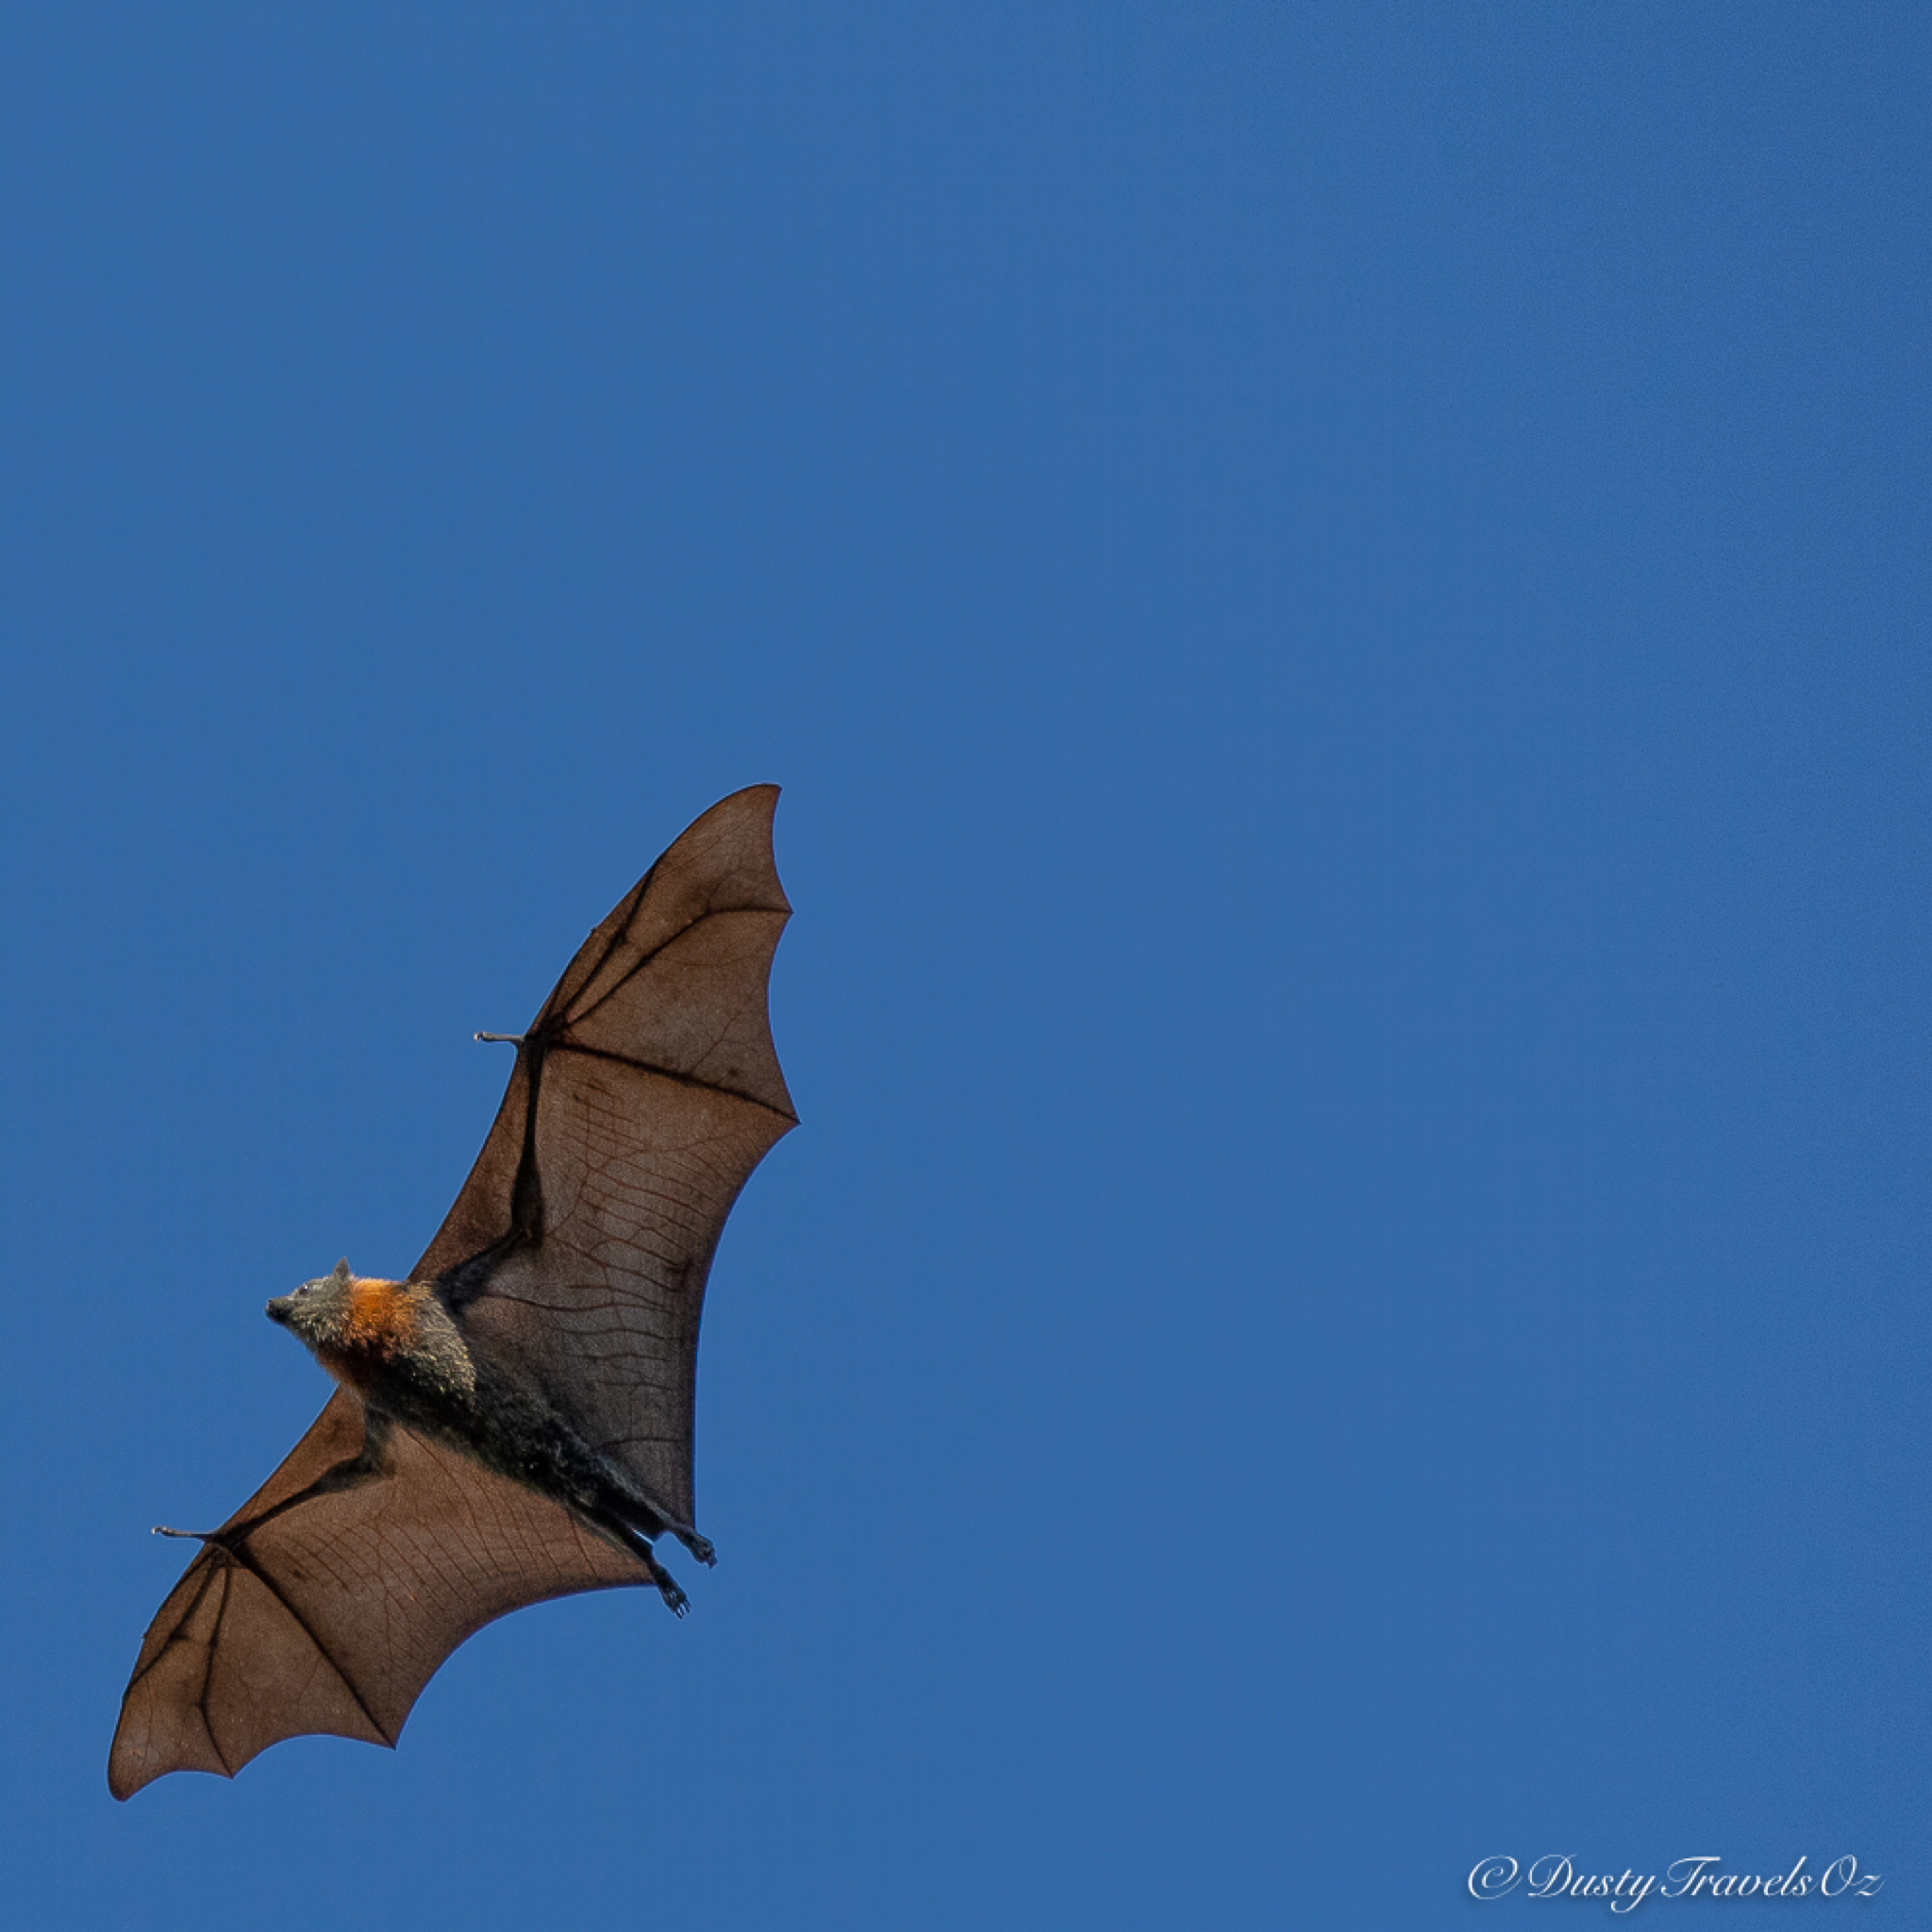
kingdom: Animalia
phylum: Chordata
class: Mammalia
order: Chiroptera
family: Pteropodidae
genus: Pteropus
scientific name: Pteropus poliocephalus
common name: Gray-headed flying fox
